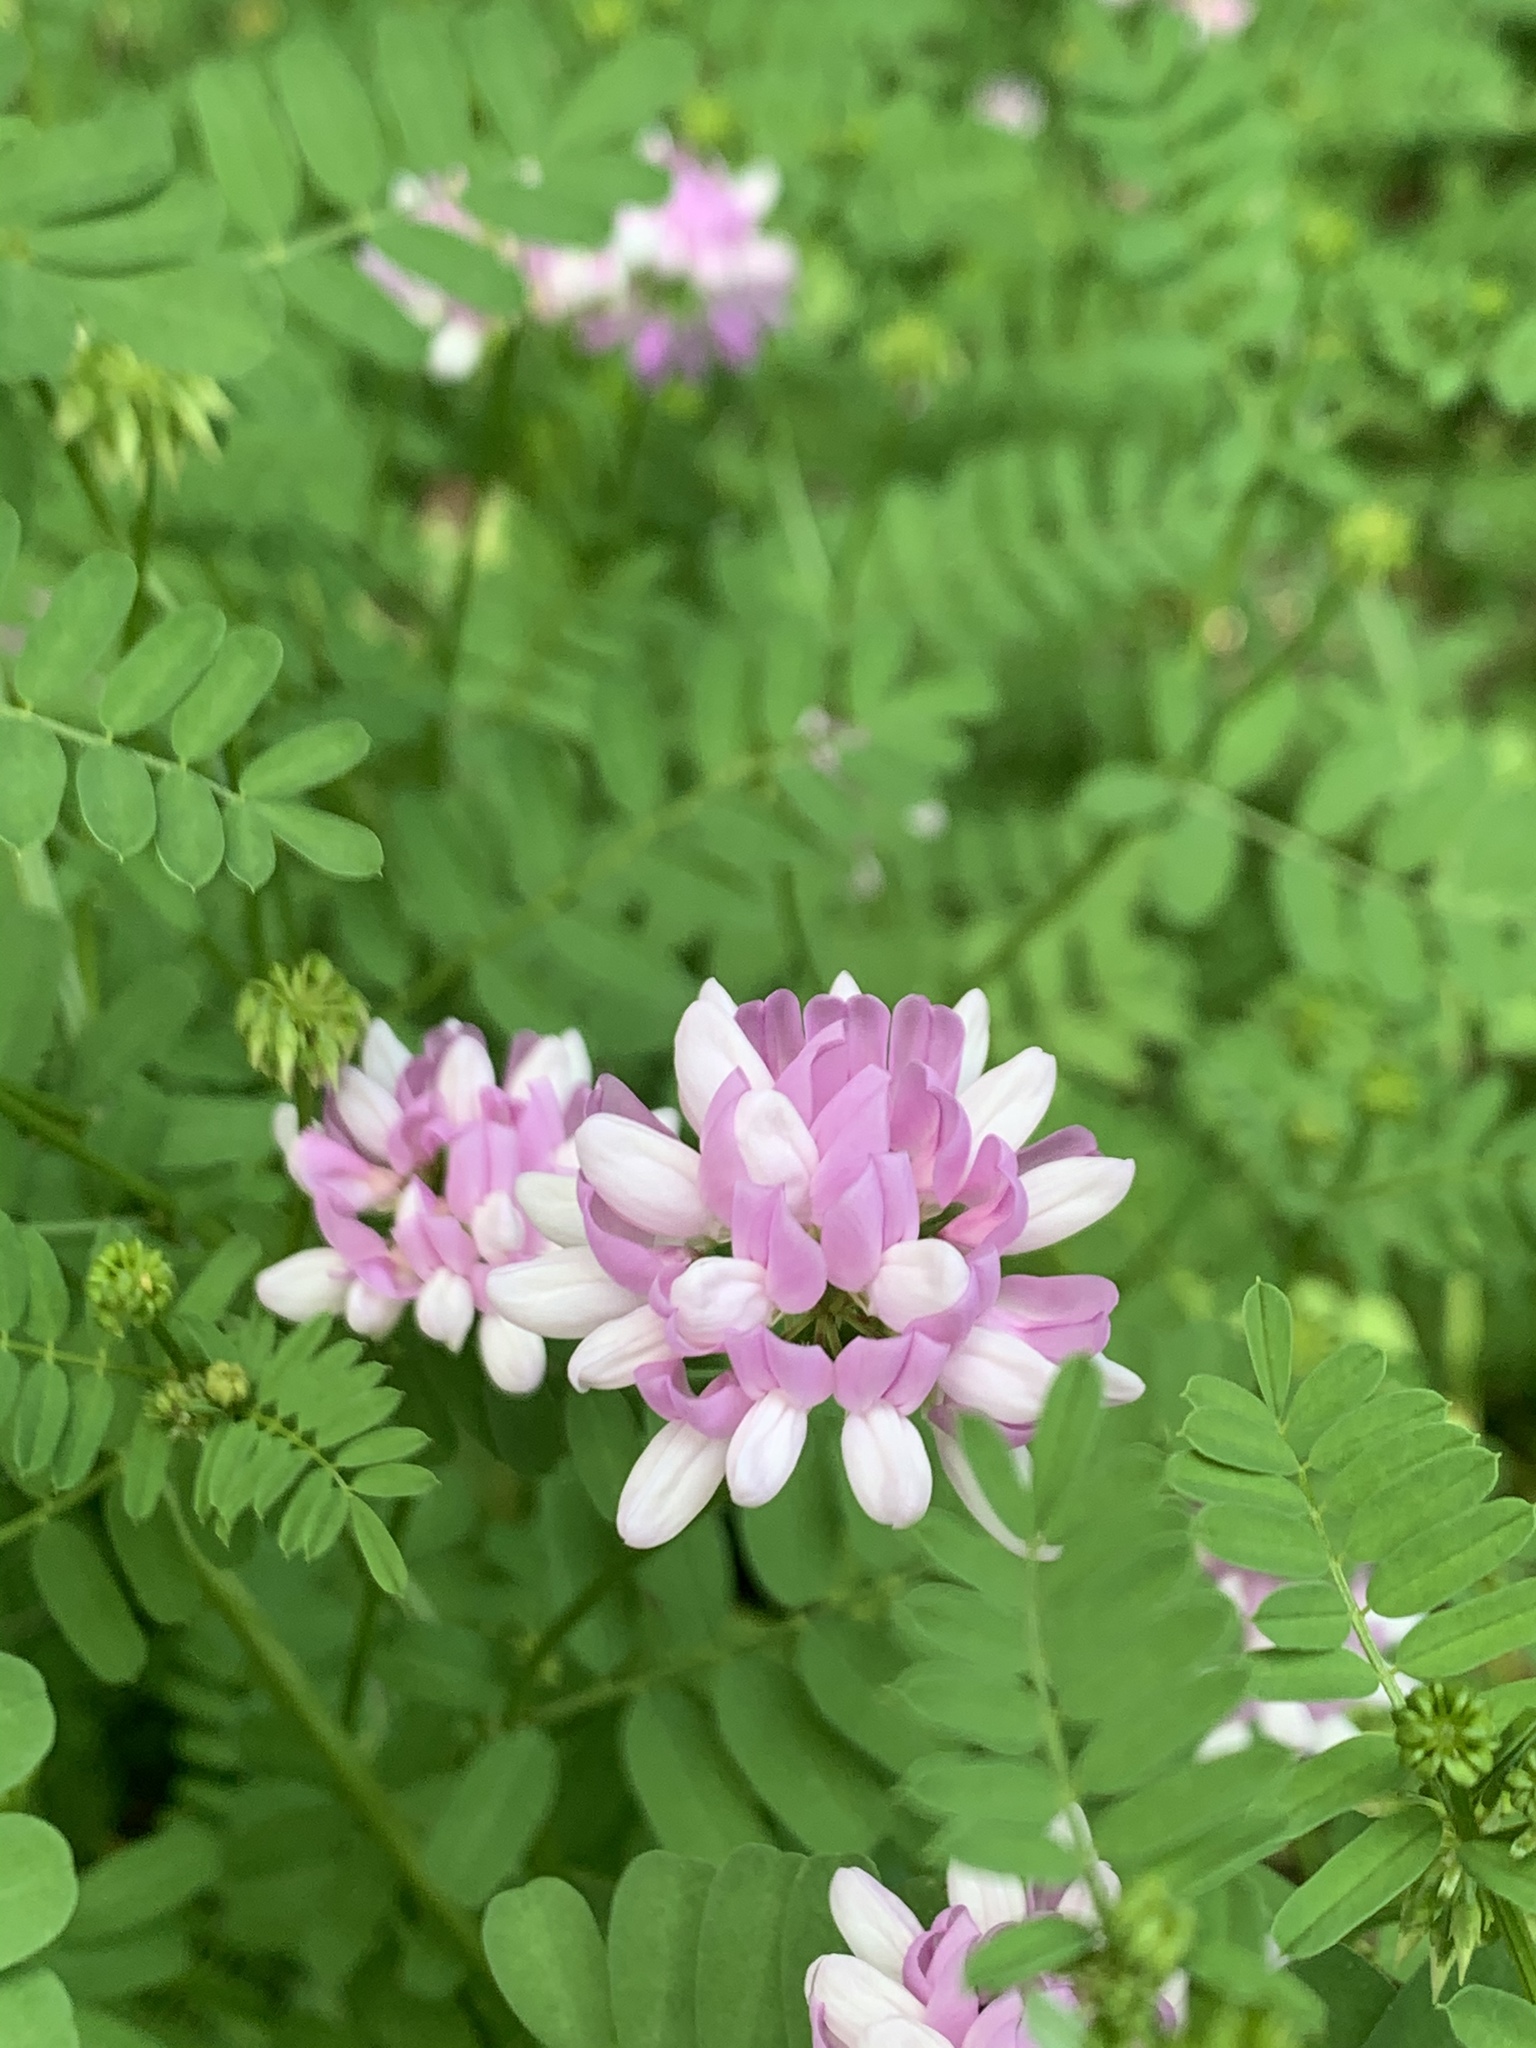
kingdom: Plantae
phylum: Tracheophyta
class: Magnoliopsida
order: Fabales
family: Fabaceae
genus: Coronilla
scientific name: Coronilla varia
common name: Crownvetch
